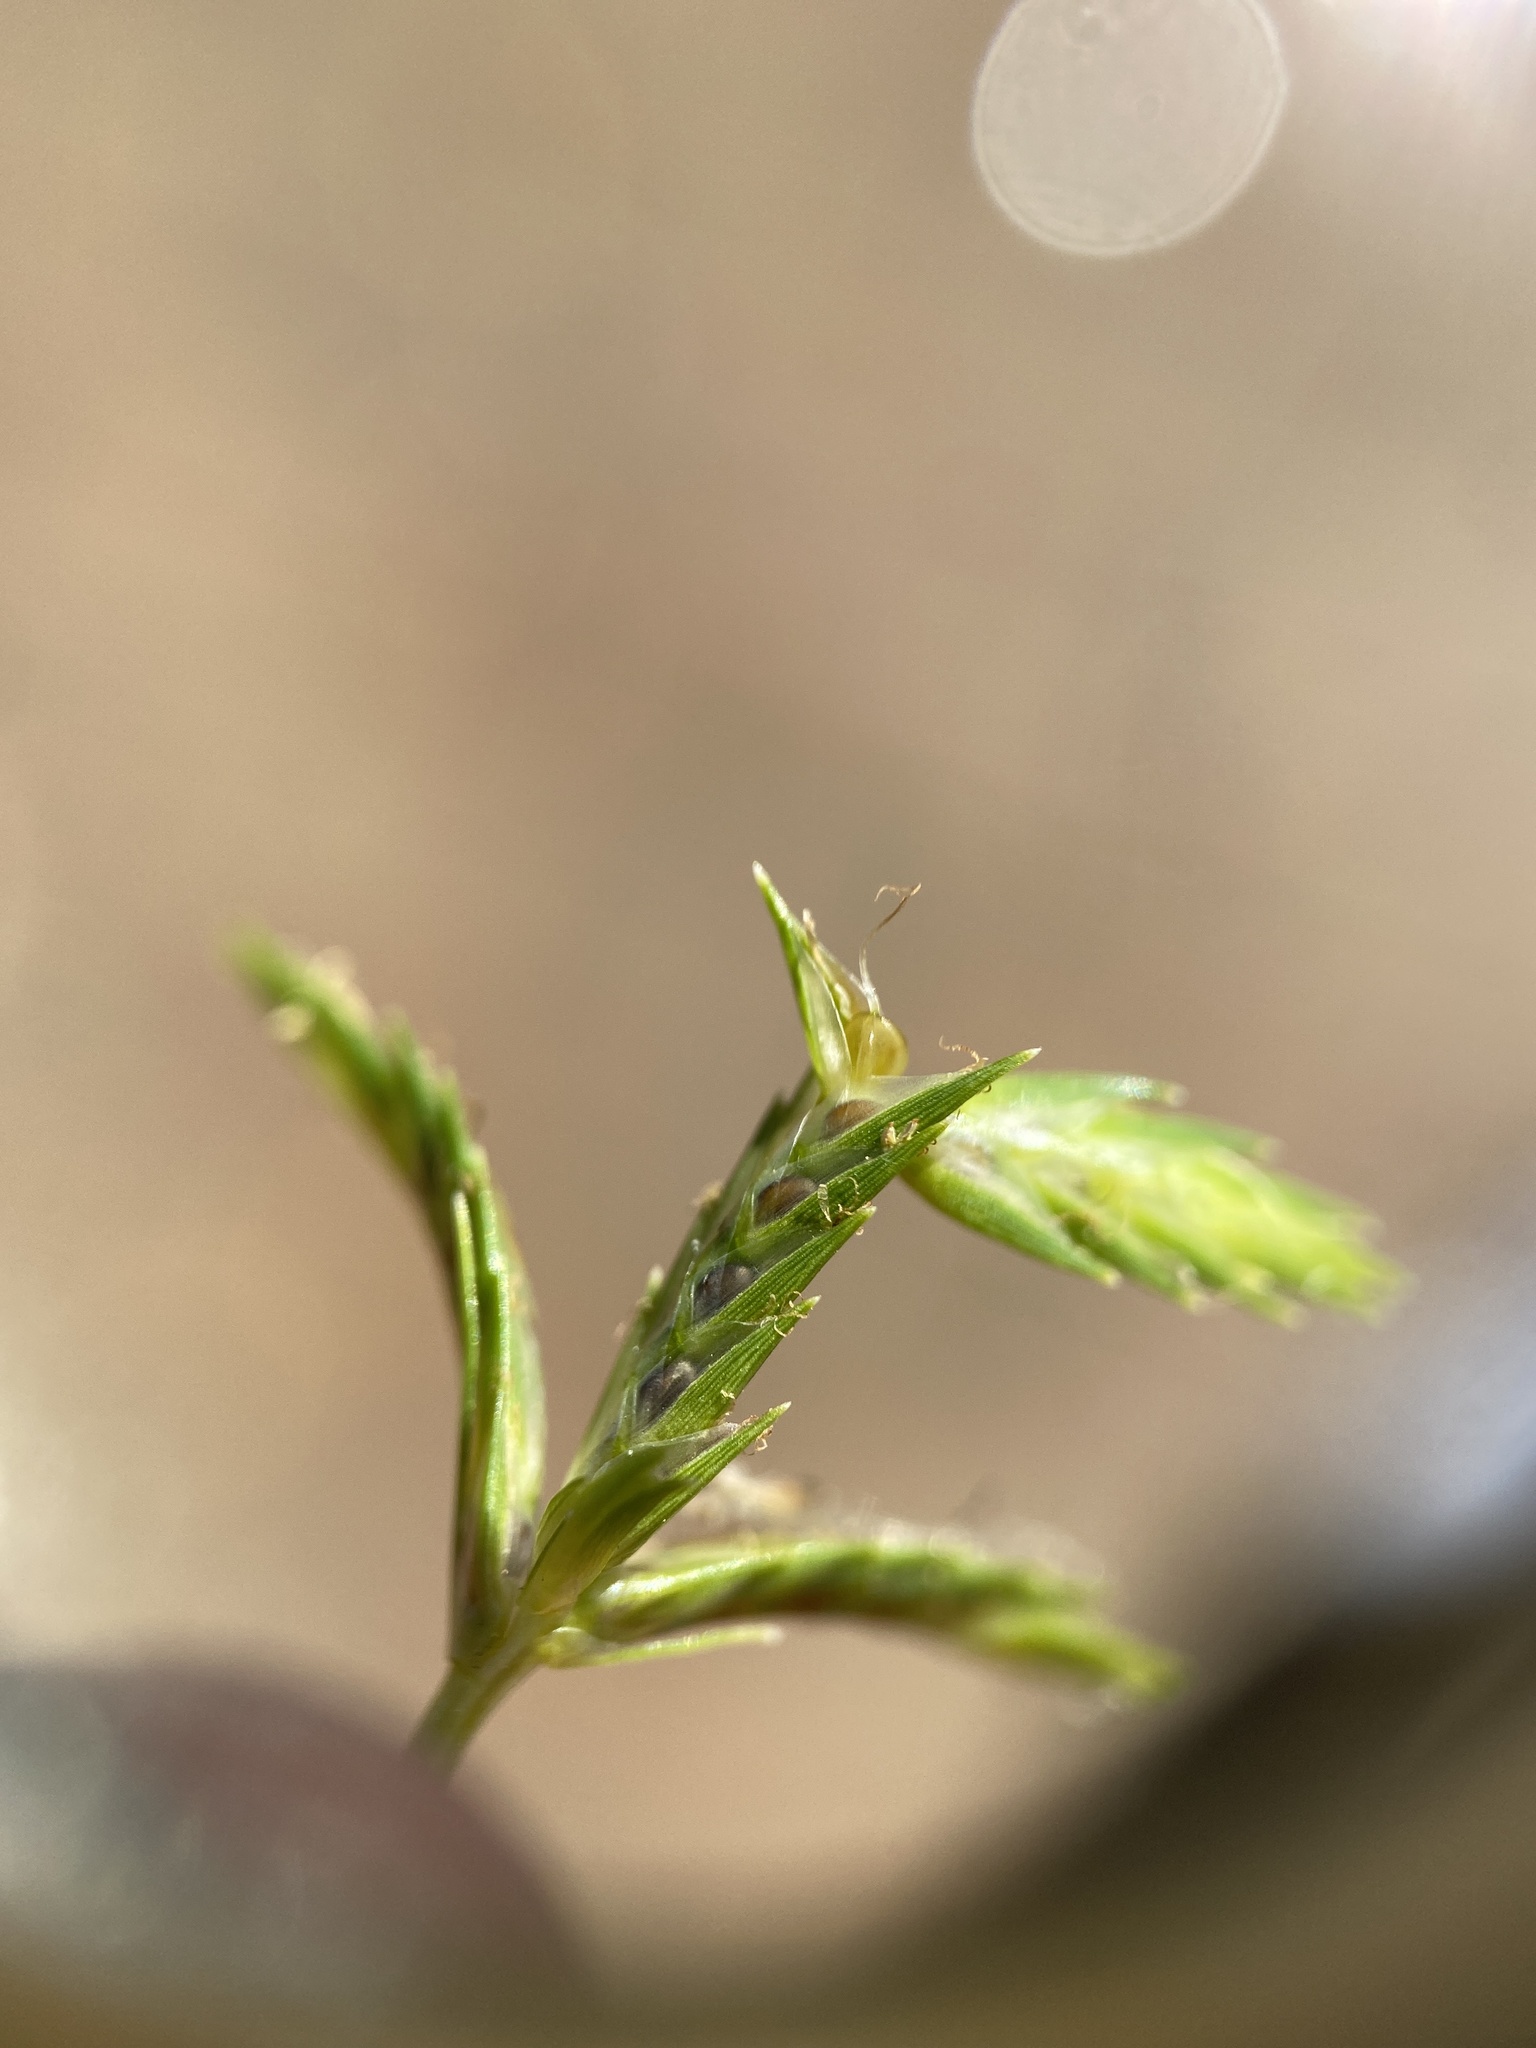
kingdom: Plantae
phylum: Tracheophyta
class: Liliopsida
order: Poales
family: Cyperaceae
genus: Cyperus
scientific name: Cyperus compressus
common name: Poorland flatsedge
